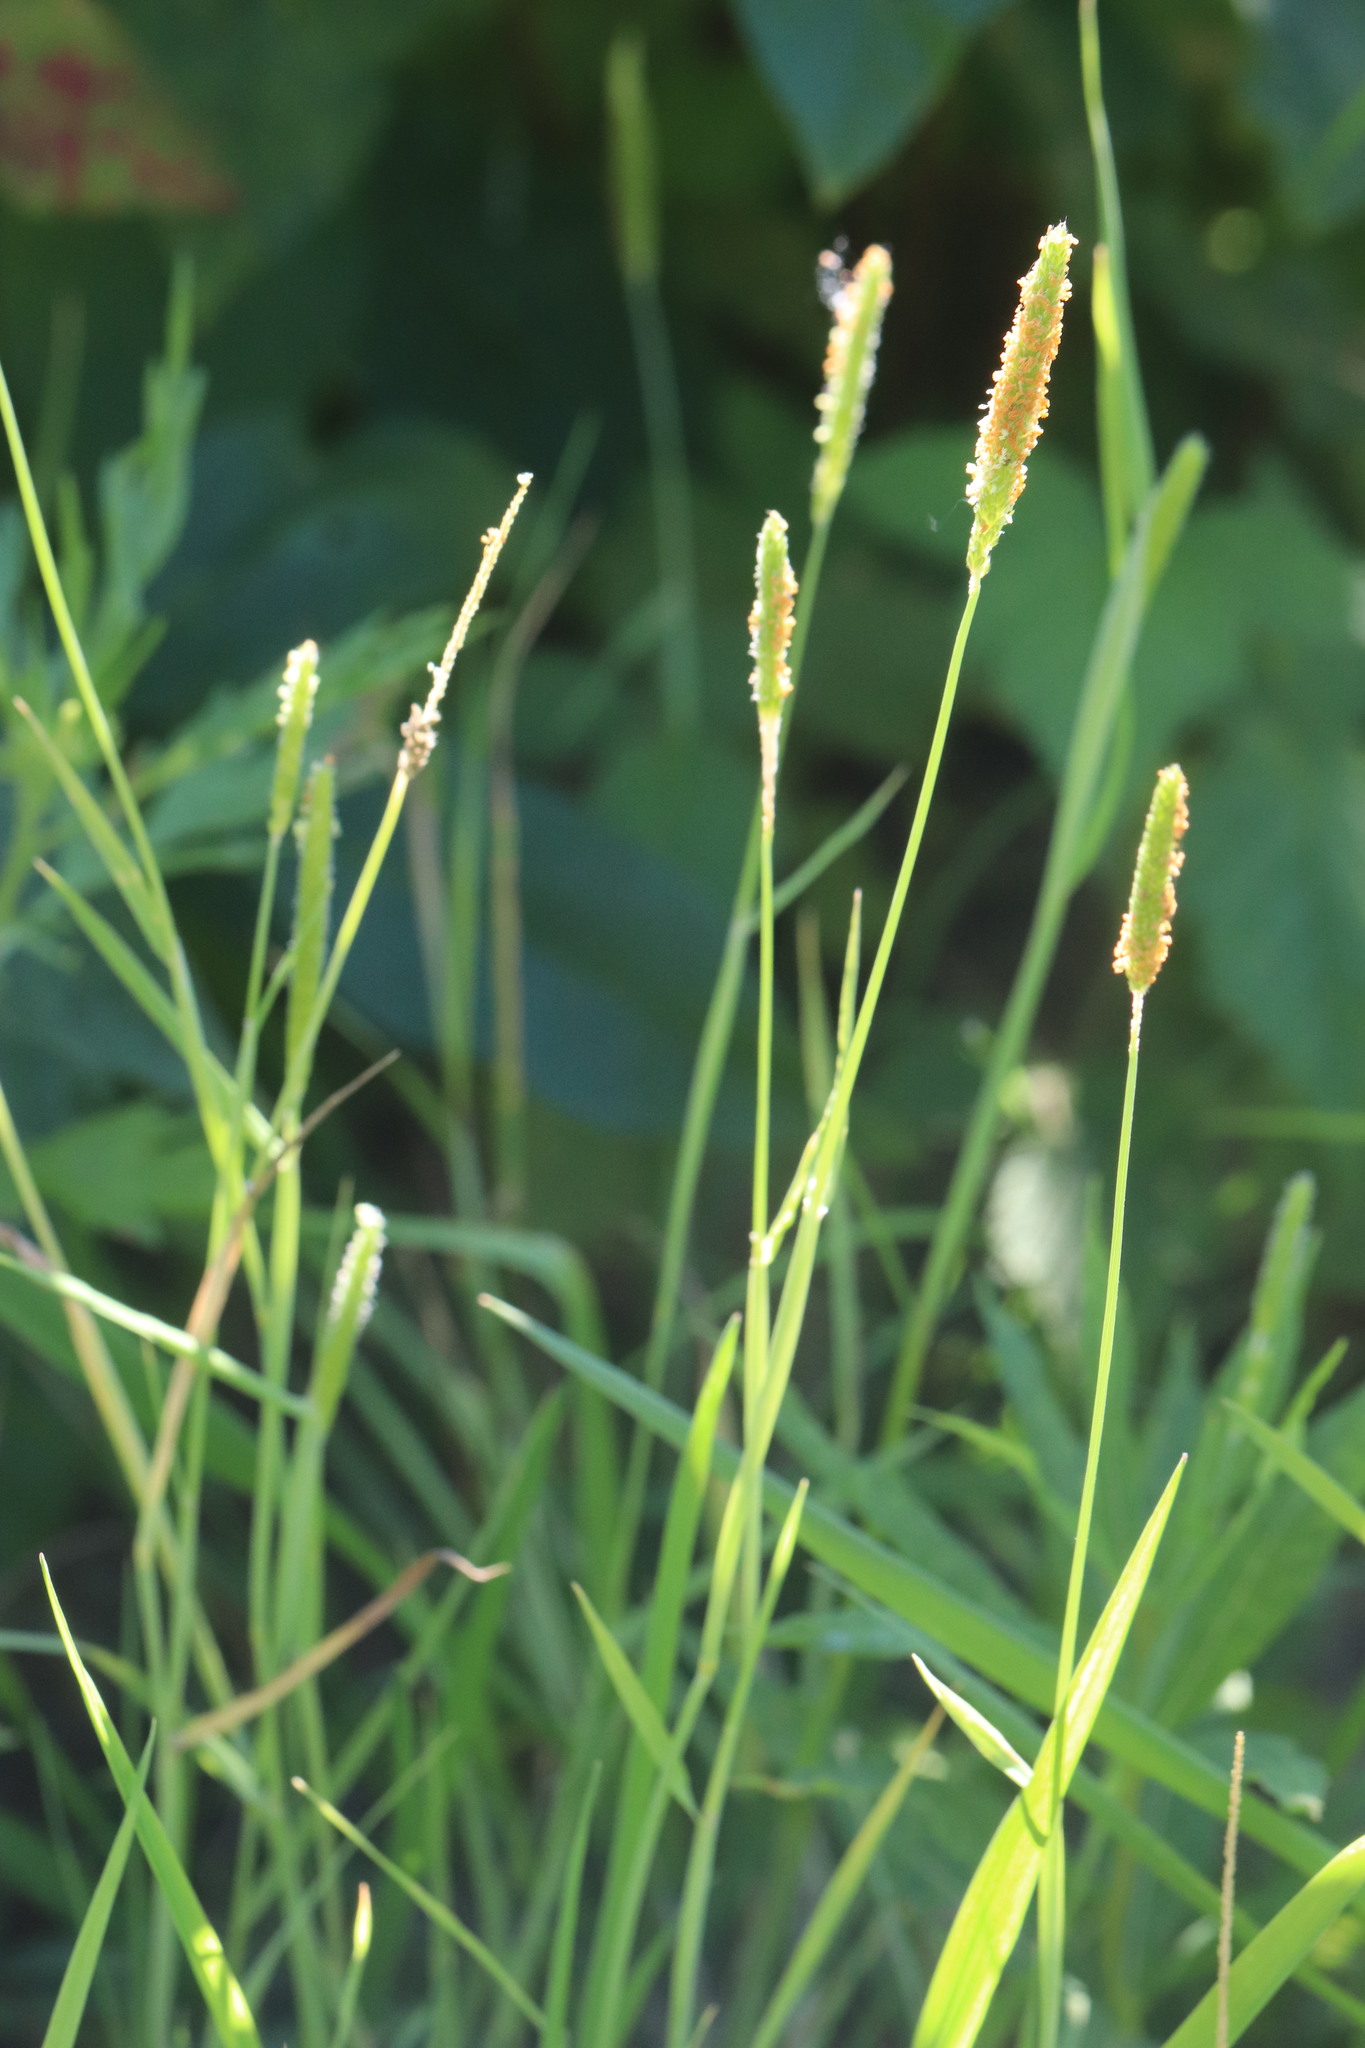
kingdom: Plantae
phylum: Tracheophyta
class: Liliopsida
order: Poales
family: Poaceae
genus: Alopecurus
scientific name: Alopecurus aequalis
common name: Orange foxtail
